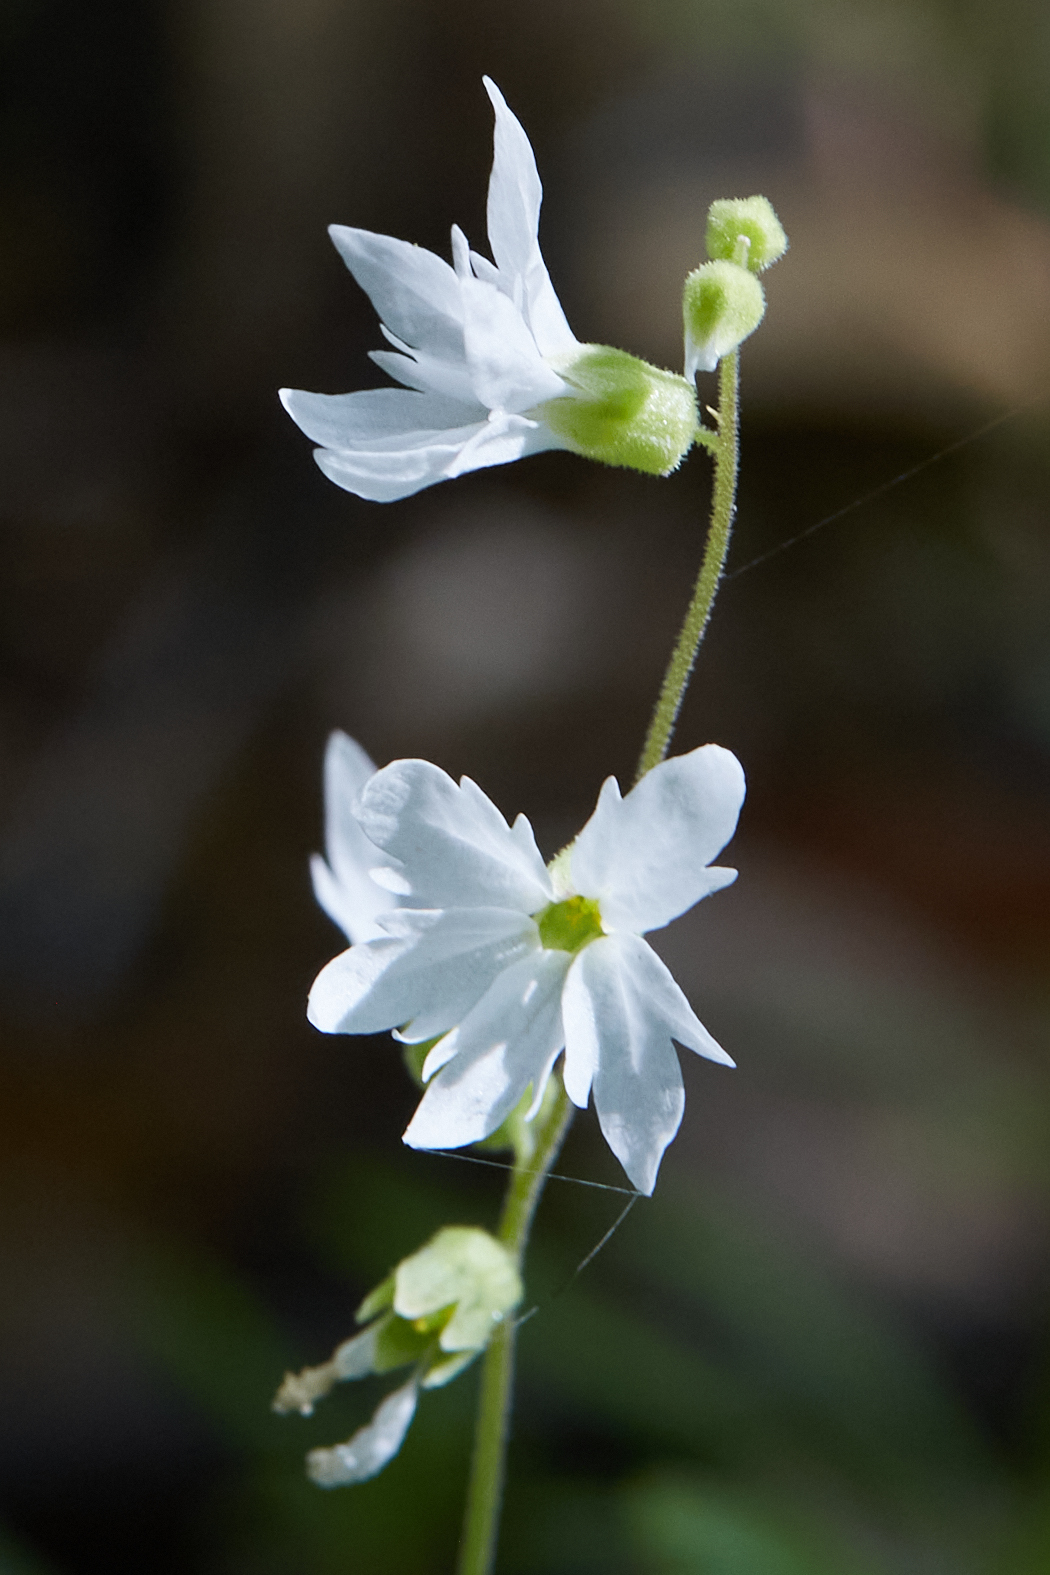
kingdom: Plantae
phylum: Tracheophyta
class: Magnoliopsida
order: Saxifragales
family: Saxifragaceae
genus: Lithophragma
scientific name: Lithophragma heterophyllum
